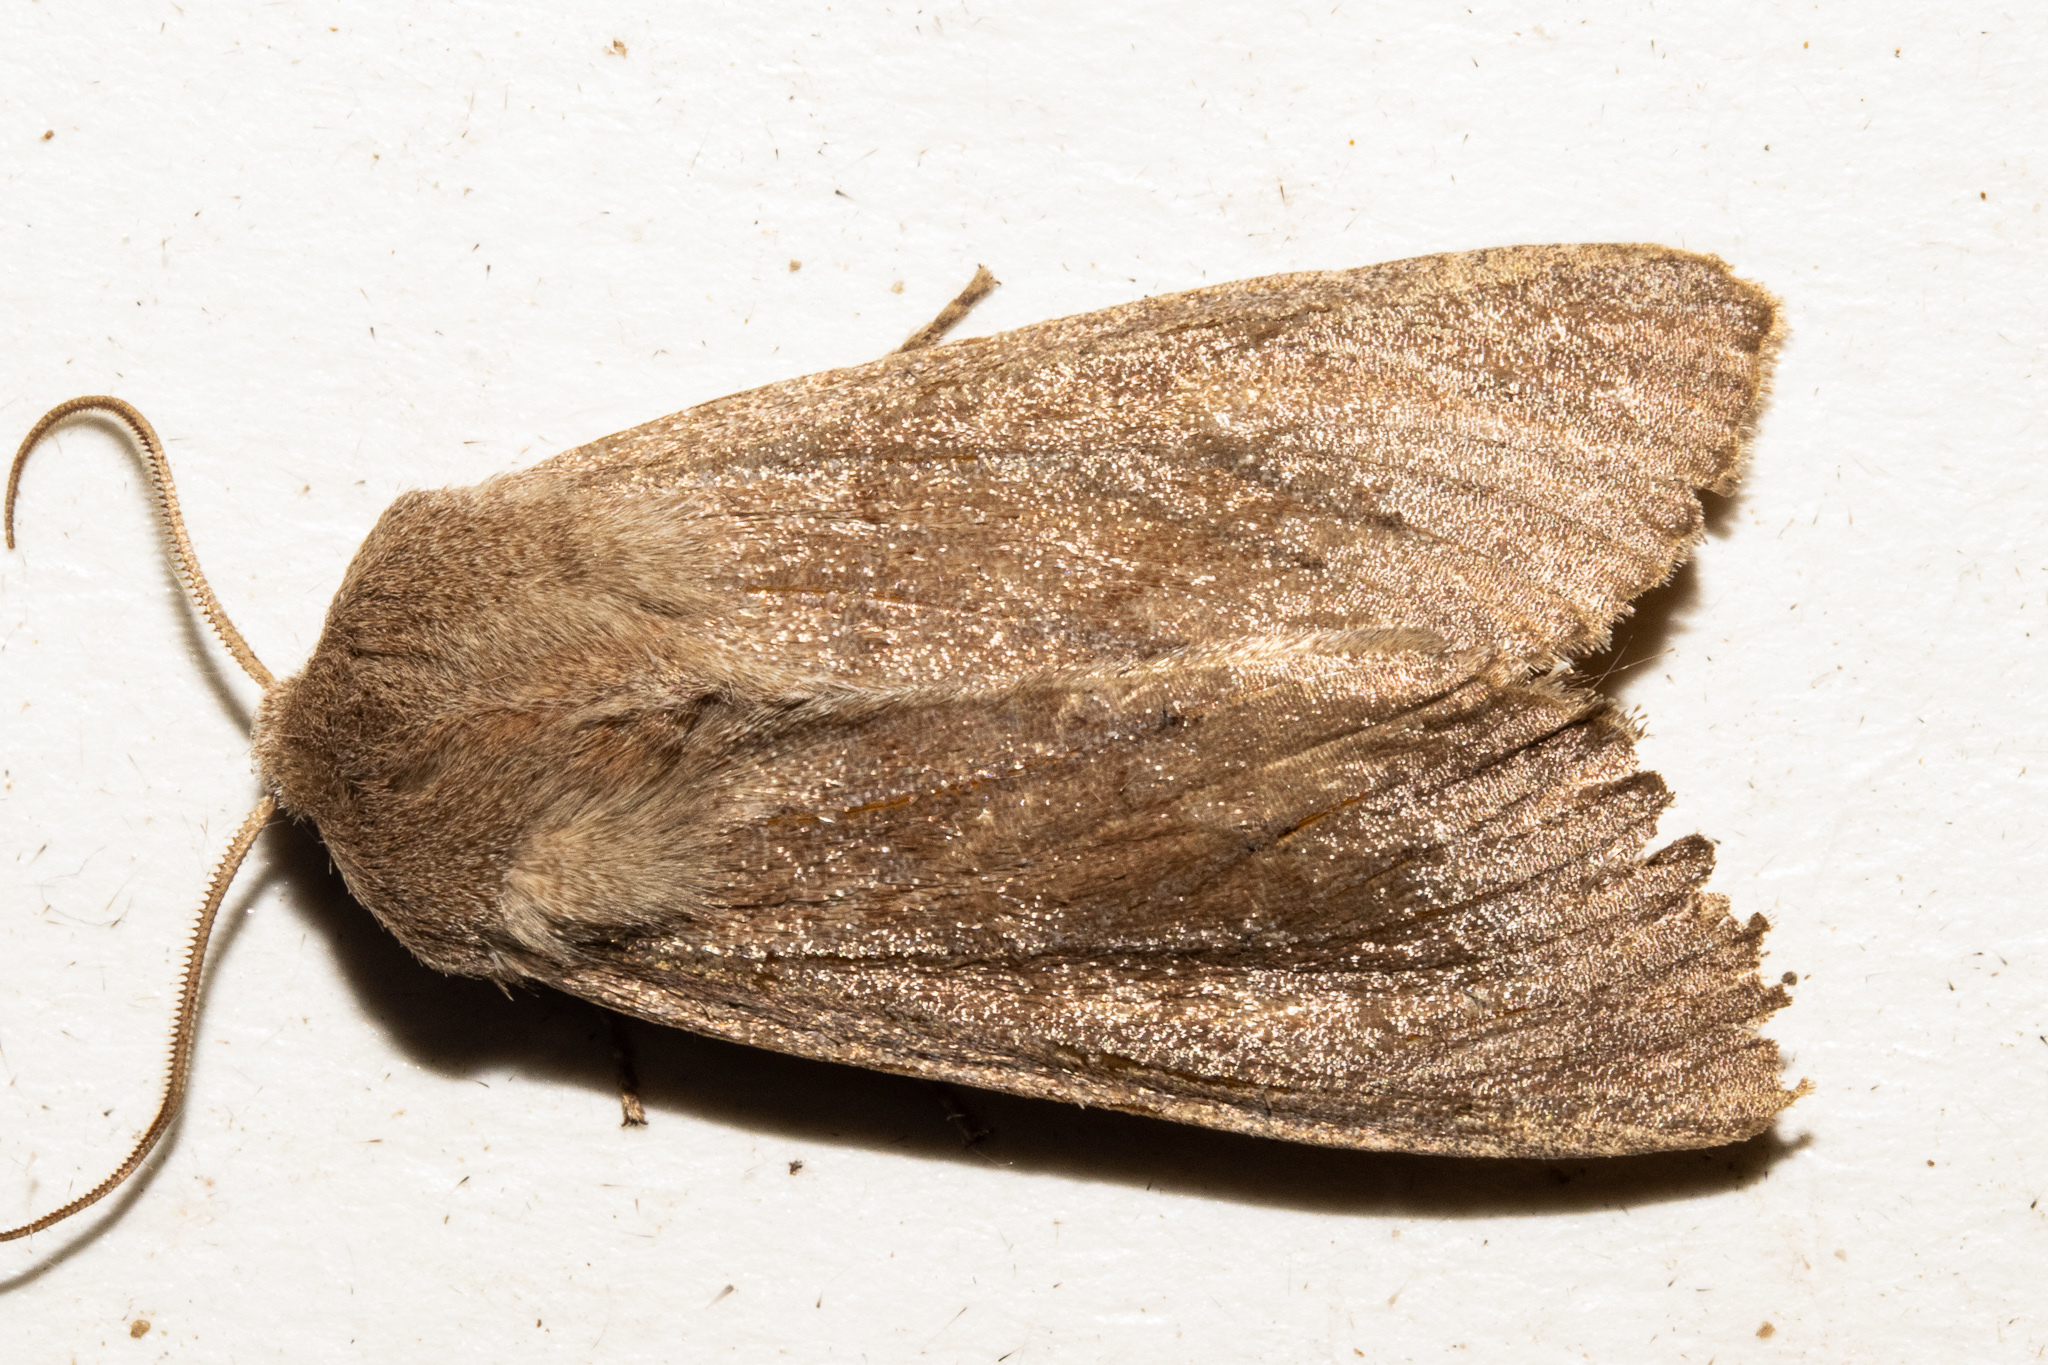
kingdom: Animalia
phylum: Arthropoda
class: Insecta
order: Lepidoptera
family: Noctuidae
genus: Ichneutica
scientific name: Ichneutica nullifera
